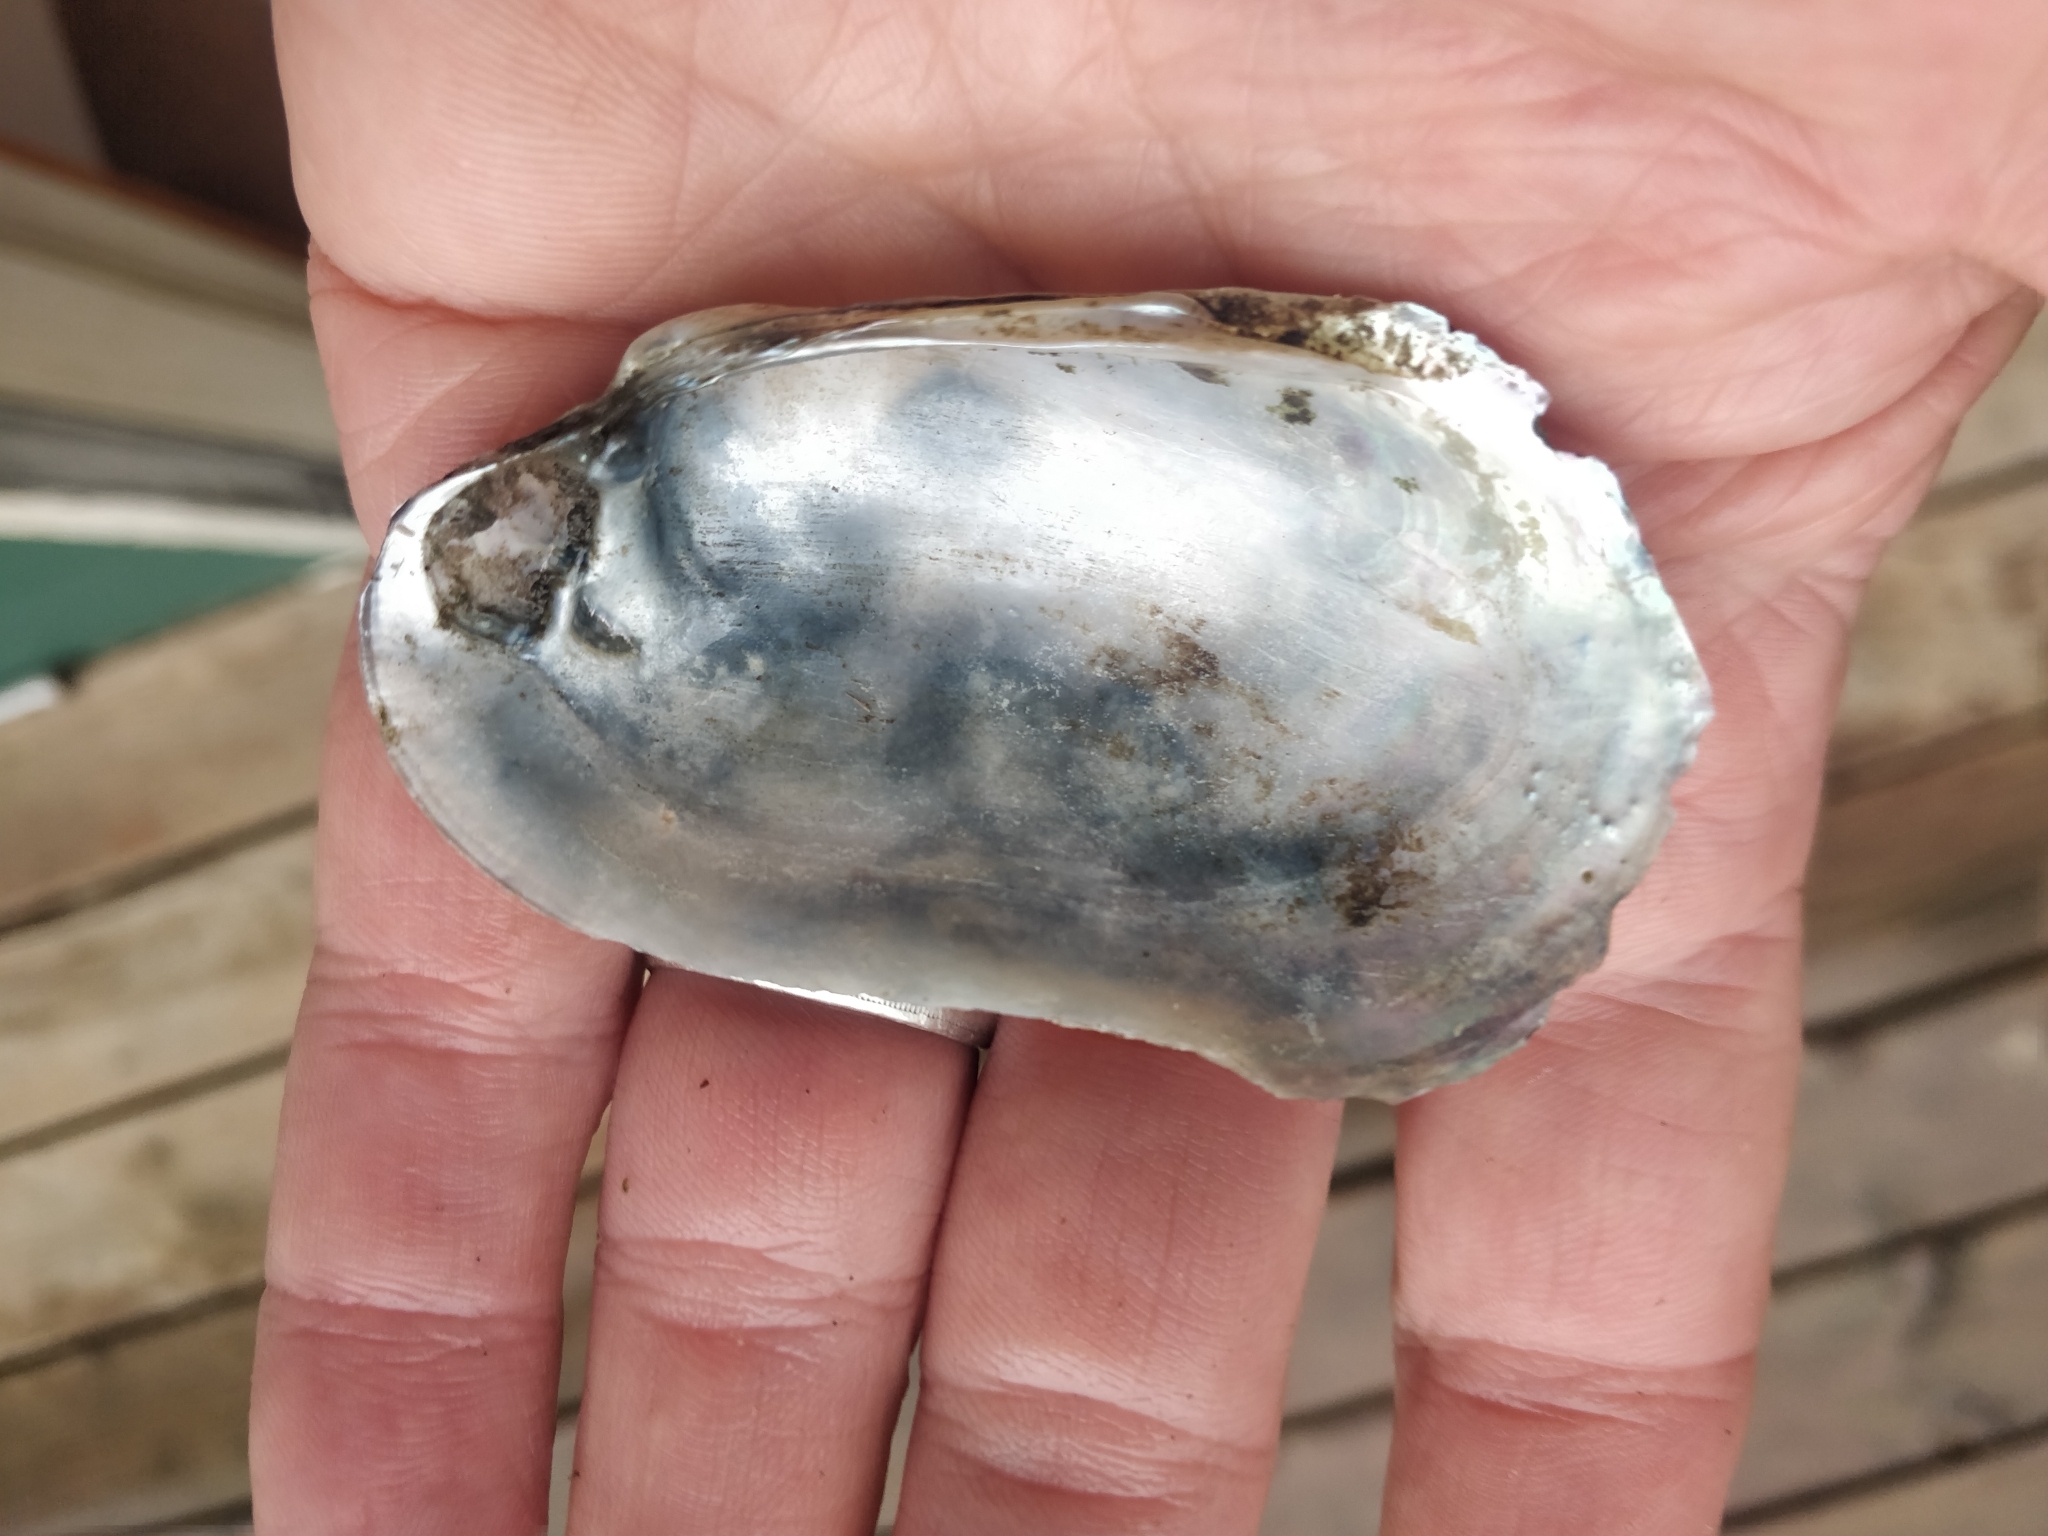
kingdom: Animalia
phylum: Mollusca
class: Bivalvia
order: Unionida
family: Unionidae
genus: Lampsilis
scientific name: Lampsilis siliquoidea
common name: Fatmucket
